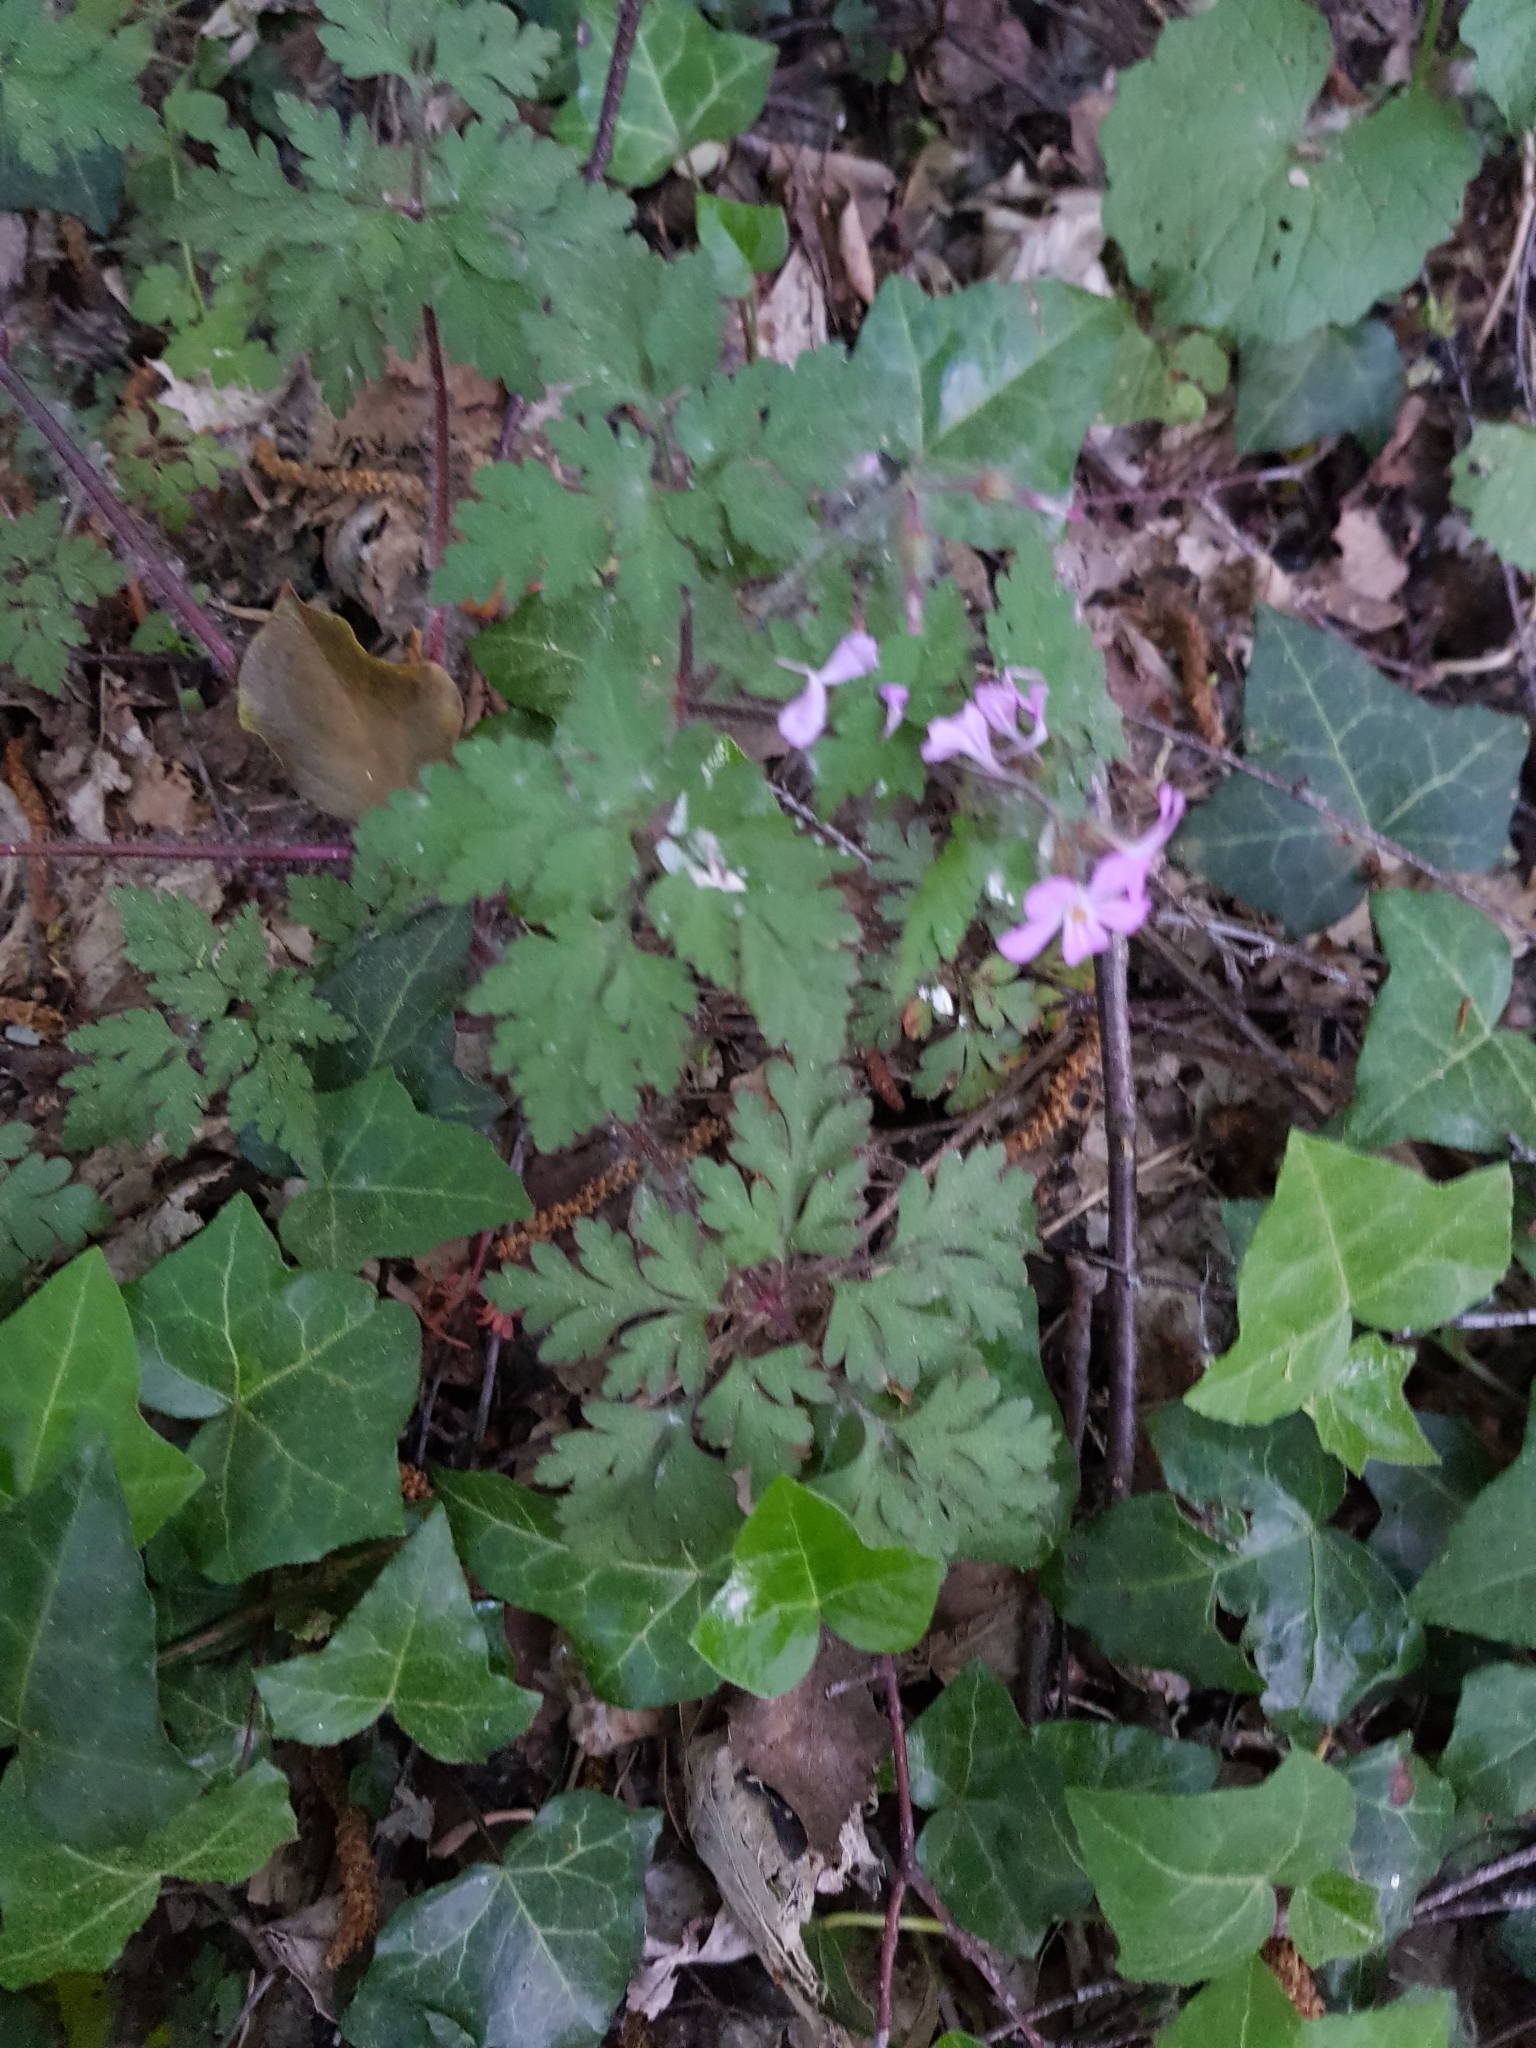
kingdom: Plantae
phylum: Tracheophyta
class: Magnoliopsida
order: Geraniales
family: Geraniaceae
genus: Geranium
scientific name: Geranium robertianum
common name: Herb-robert
